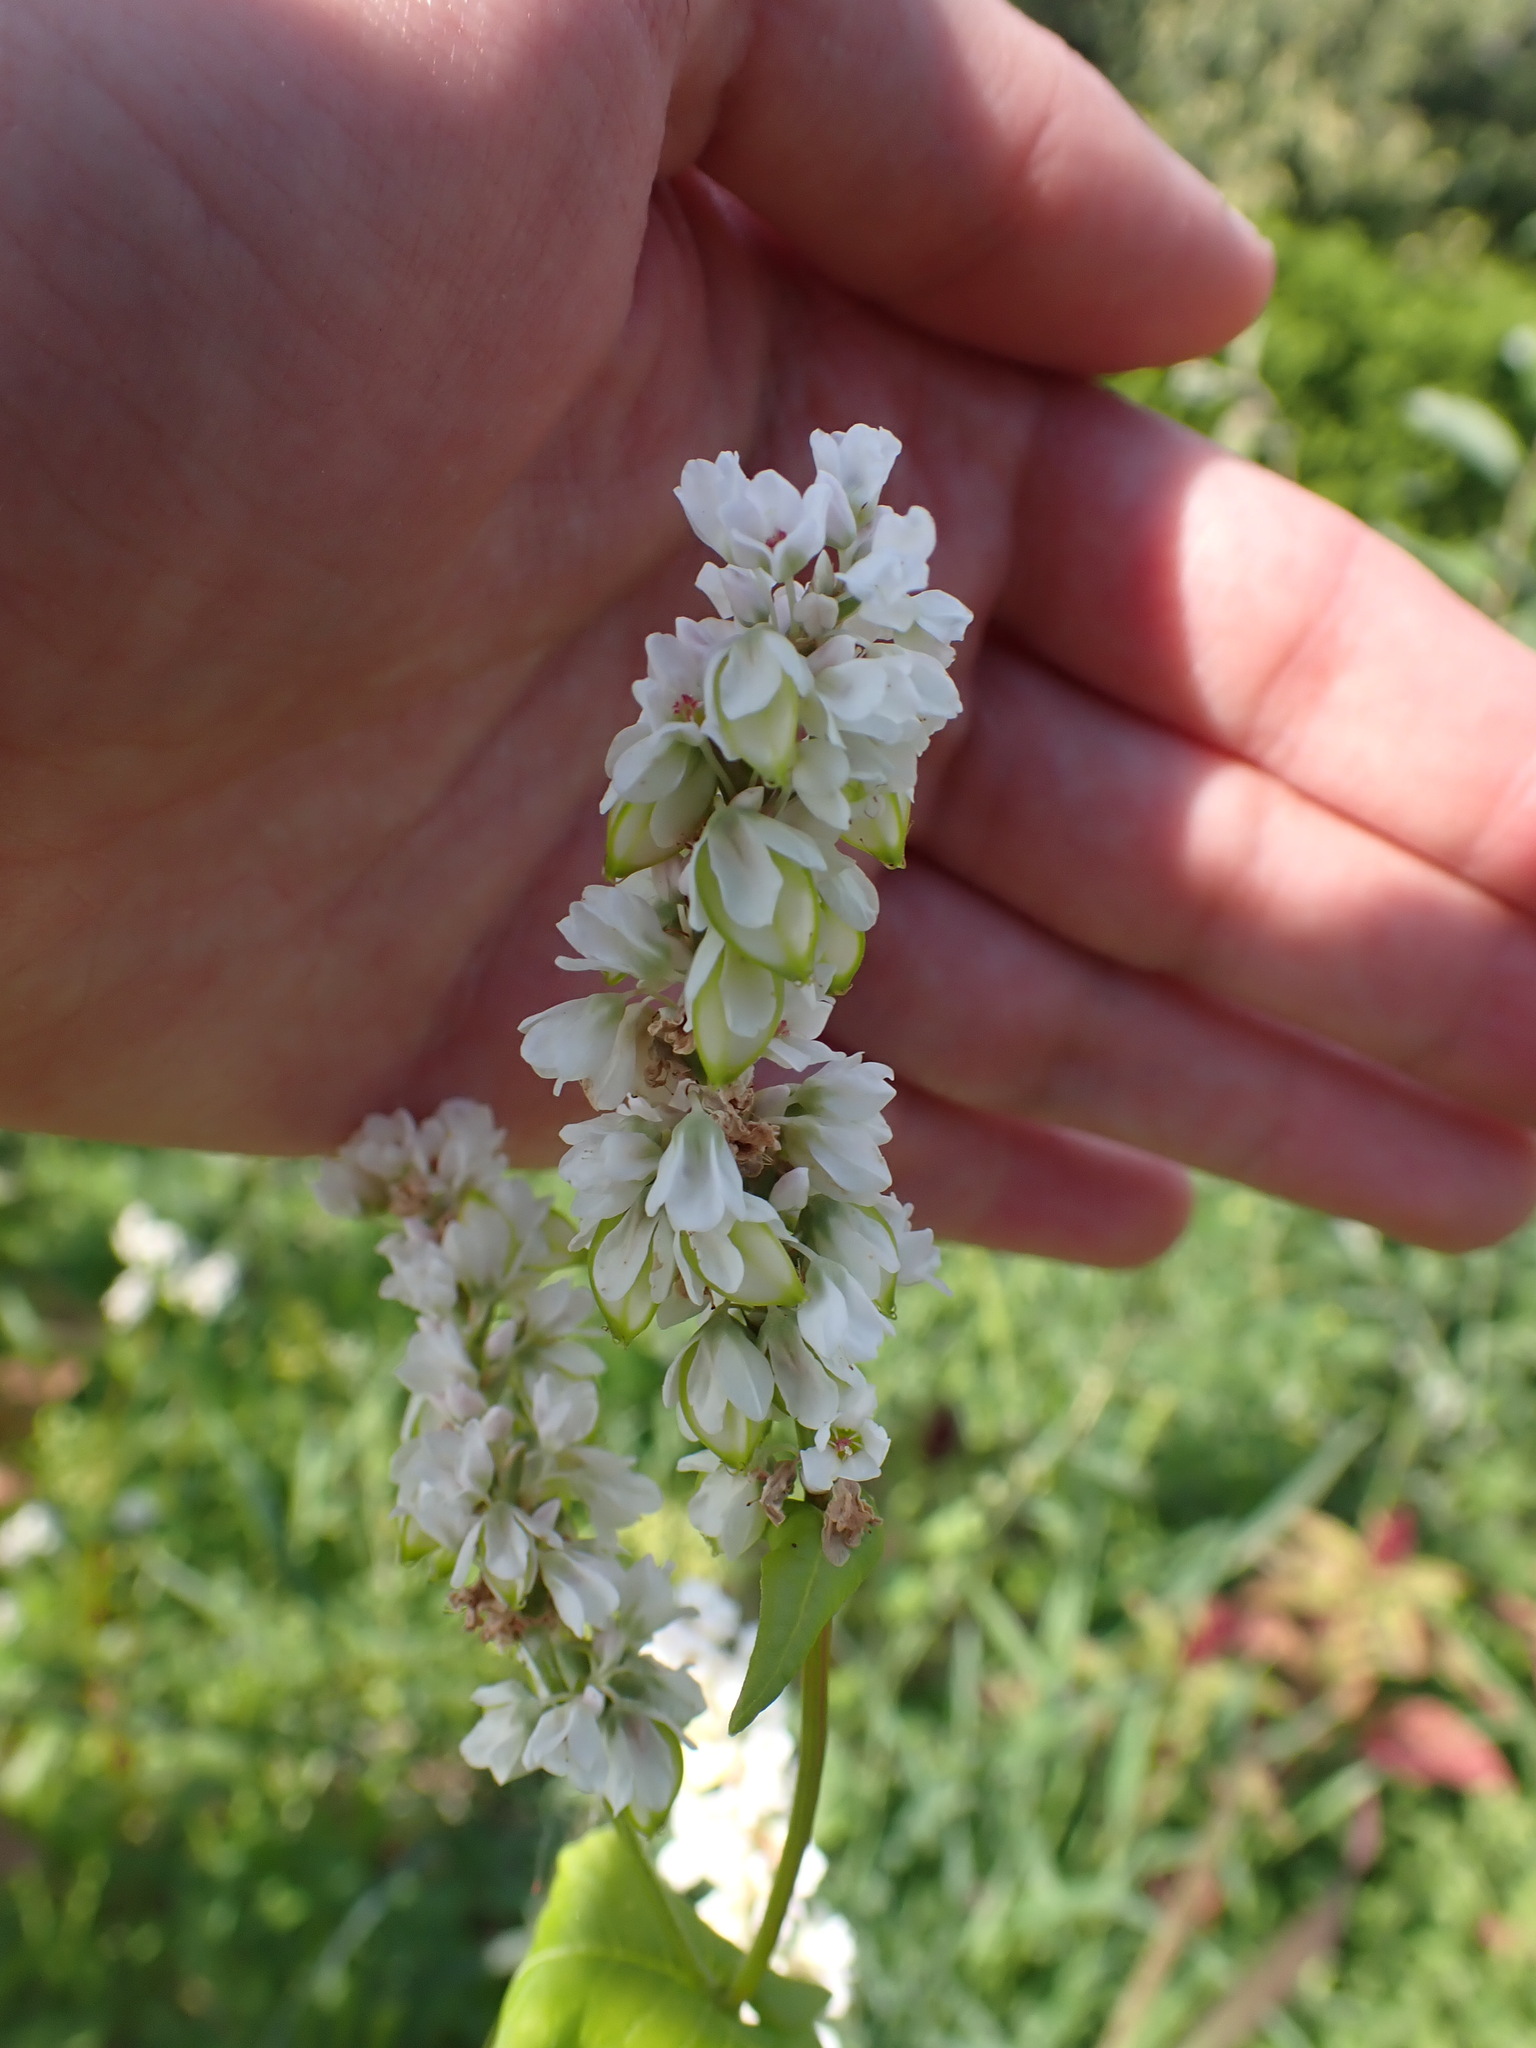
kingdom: Plantae
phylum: Tracheophyta
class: Magnoliopsida
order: Caryophyllales
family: Polygonaceae
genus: Fagopyrum
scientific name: Fagopyrum esculentum
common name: Buckwheat
